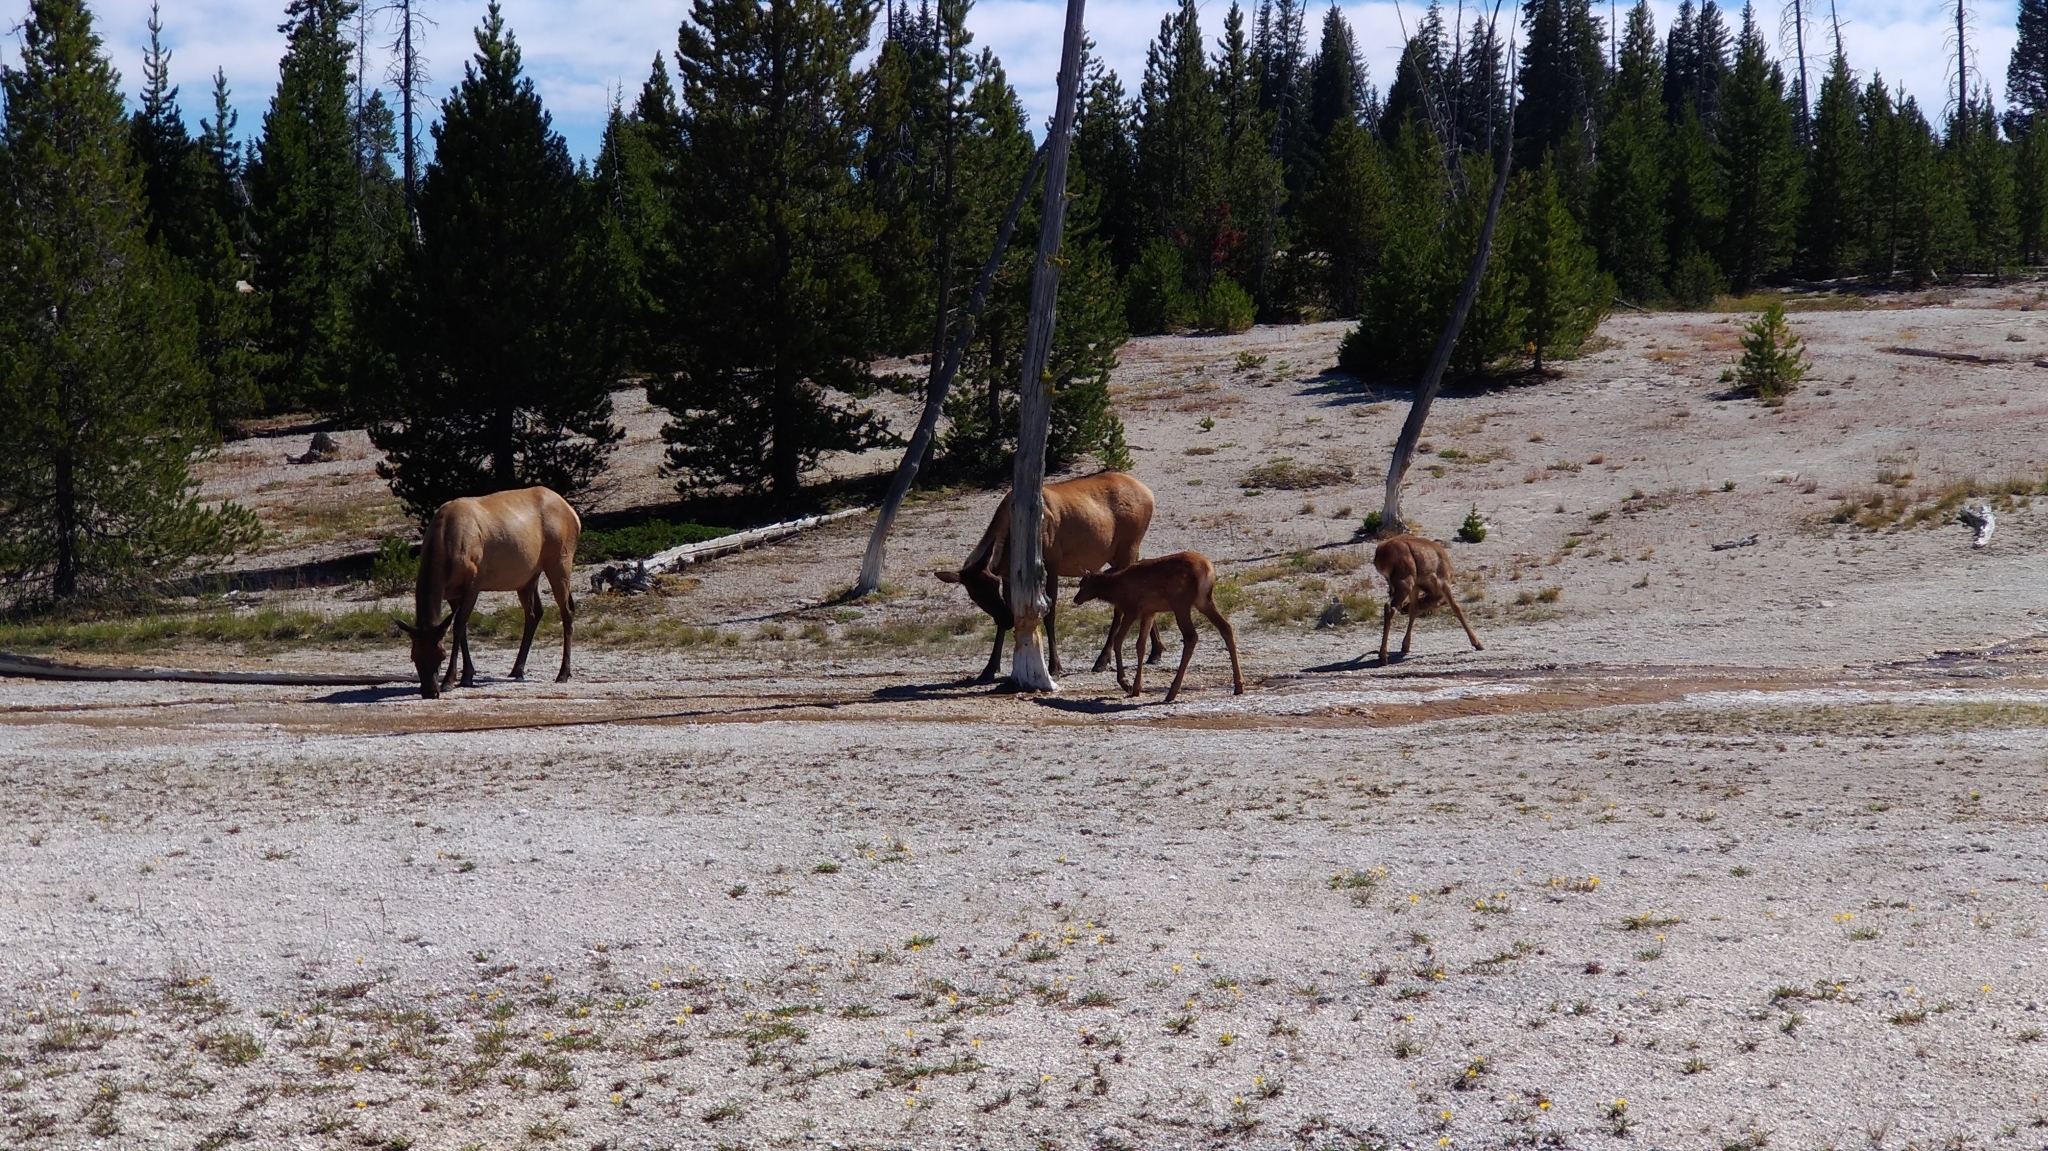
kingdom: Animalia
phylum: Chordata
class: Mammalia
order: Artiodactyla
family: Cervidae
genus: Cervus
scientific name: Cervus elaphus
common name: Red deer
